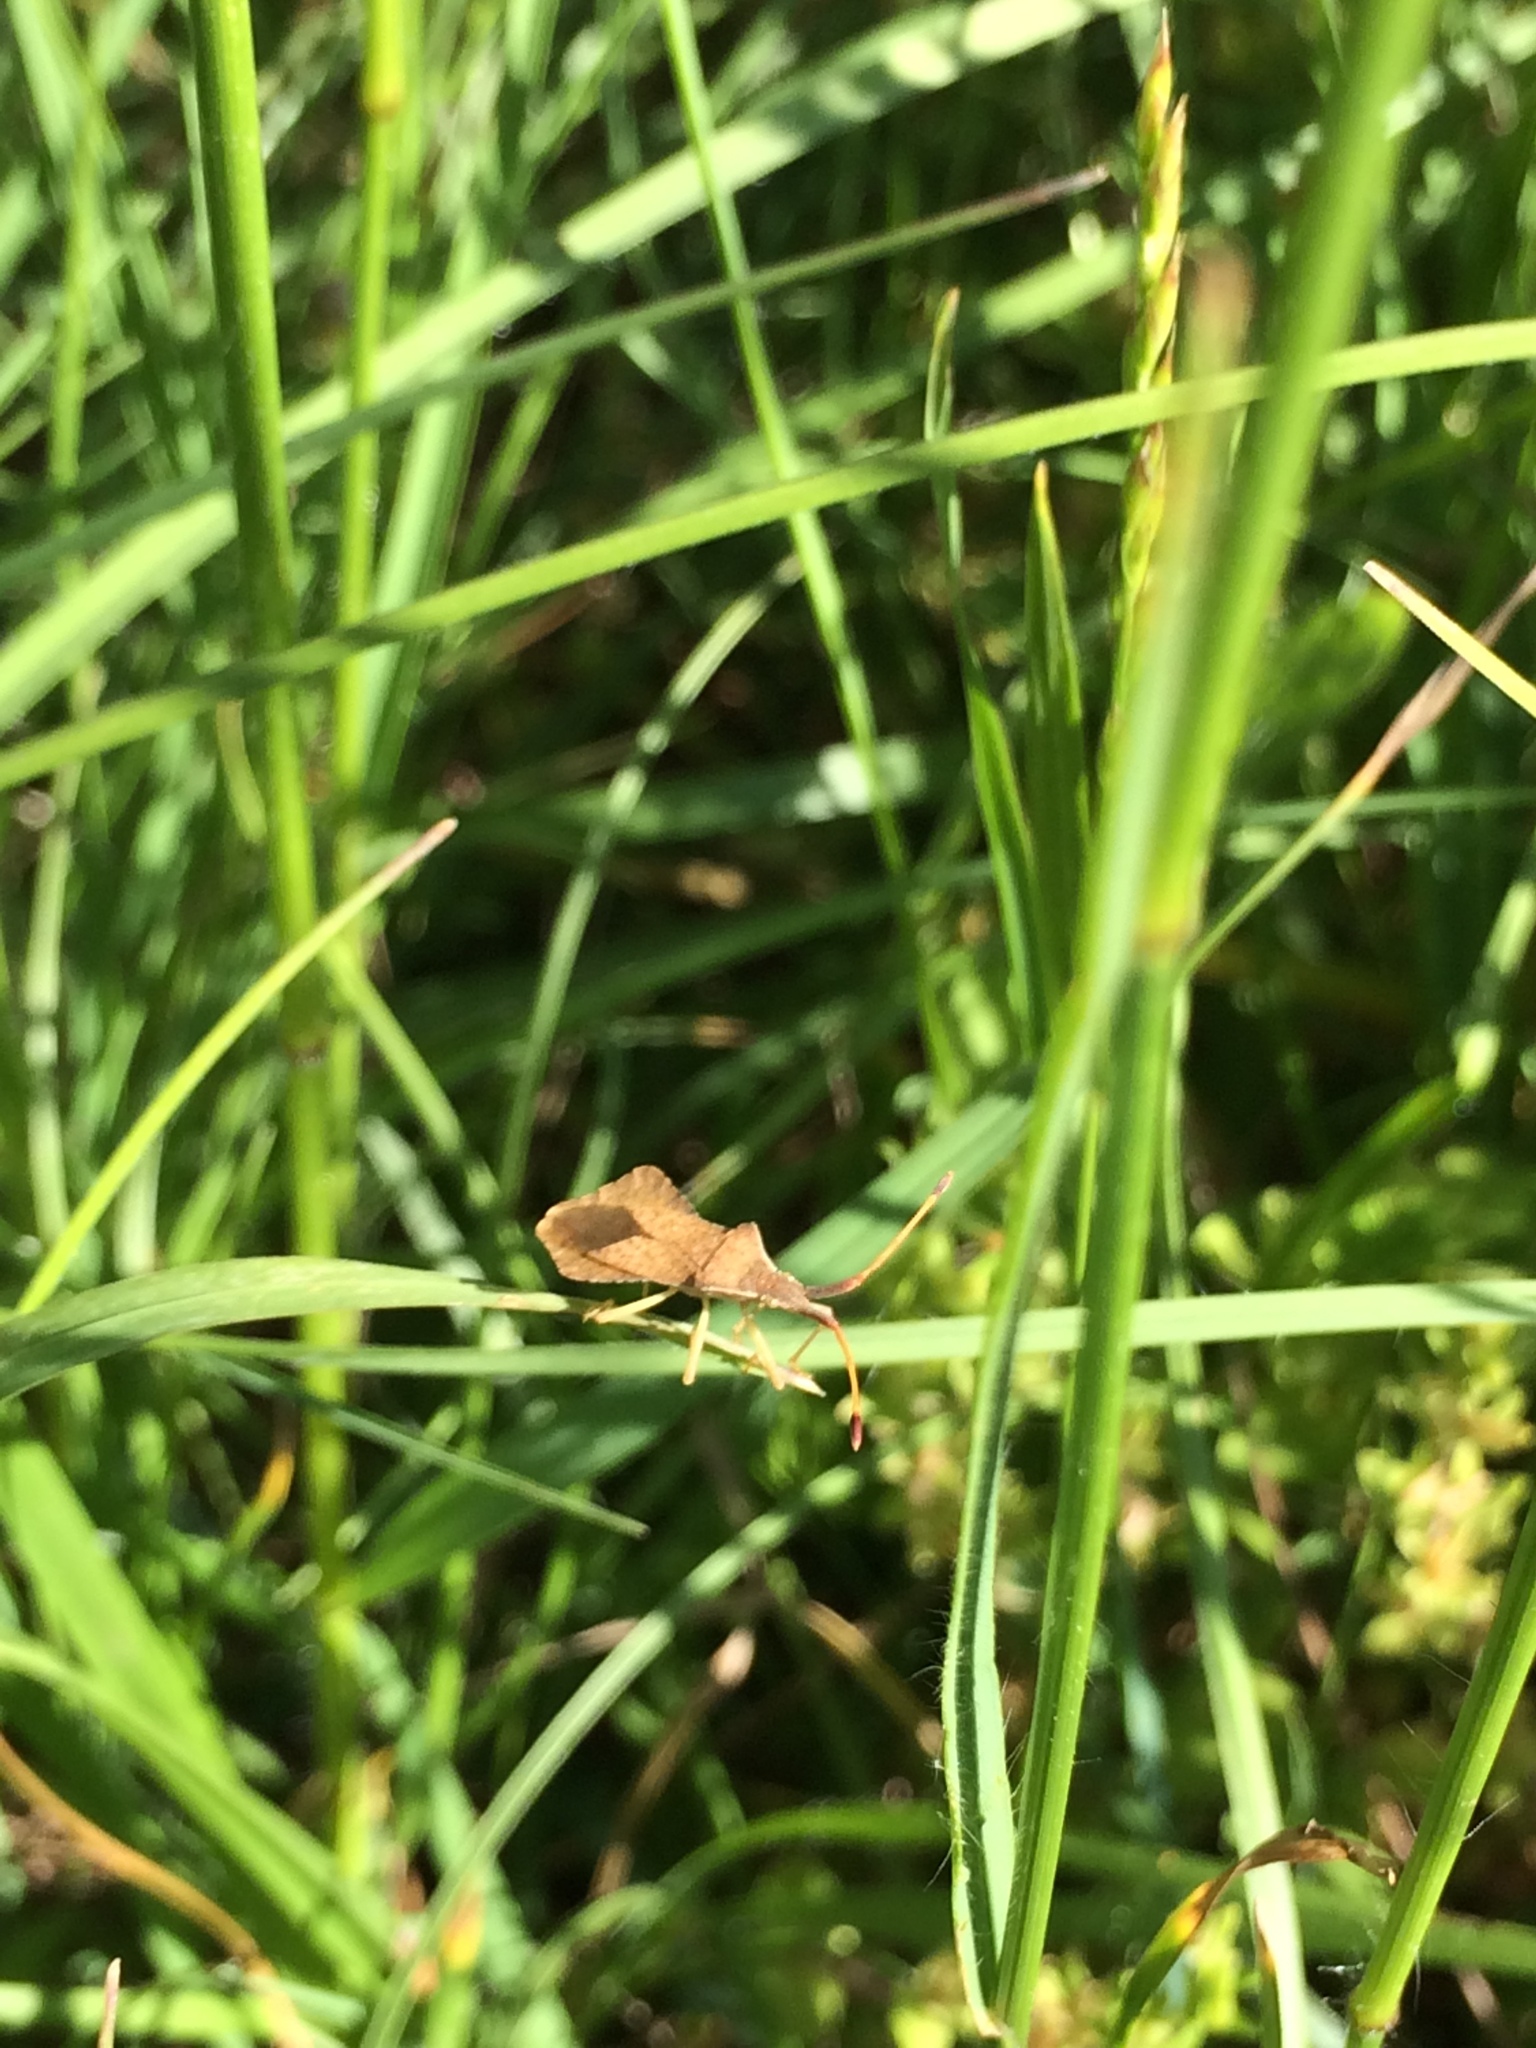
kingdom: Animalia
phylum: Arthropoda
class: Insecta
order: Hemiptera
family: Coreidae
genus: Syromastus
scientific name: Syromastus rhombeus
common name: Rhombic leatherbug
